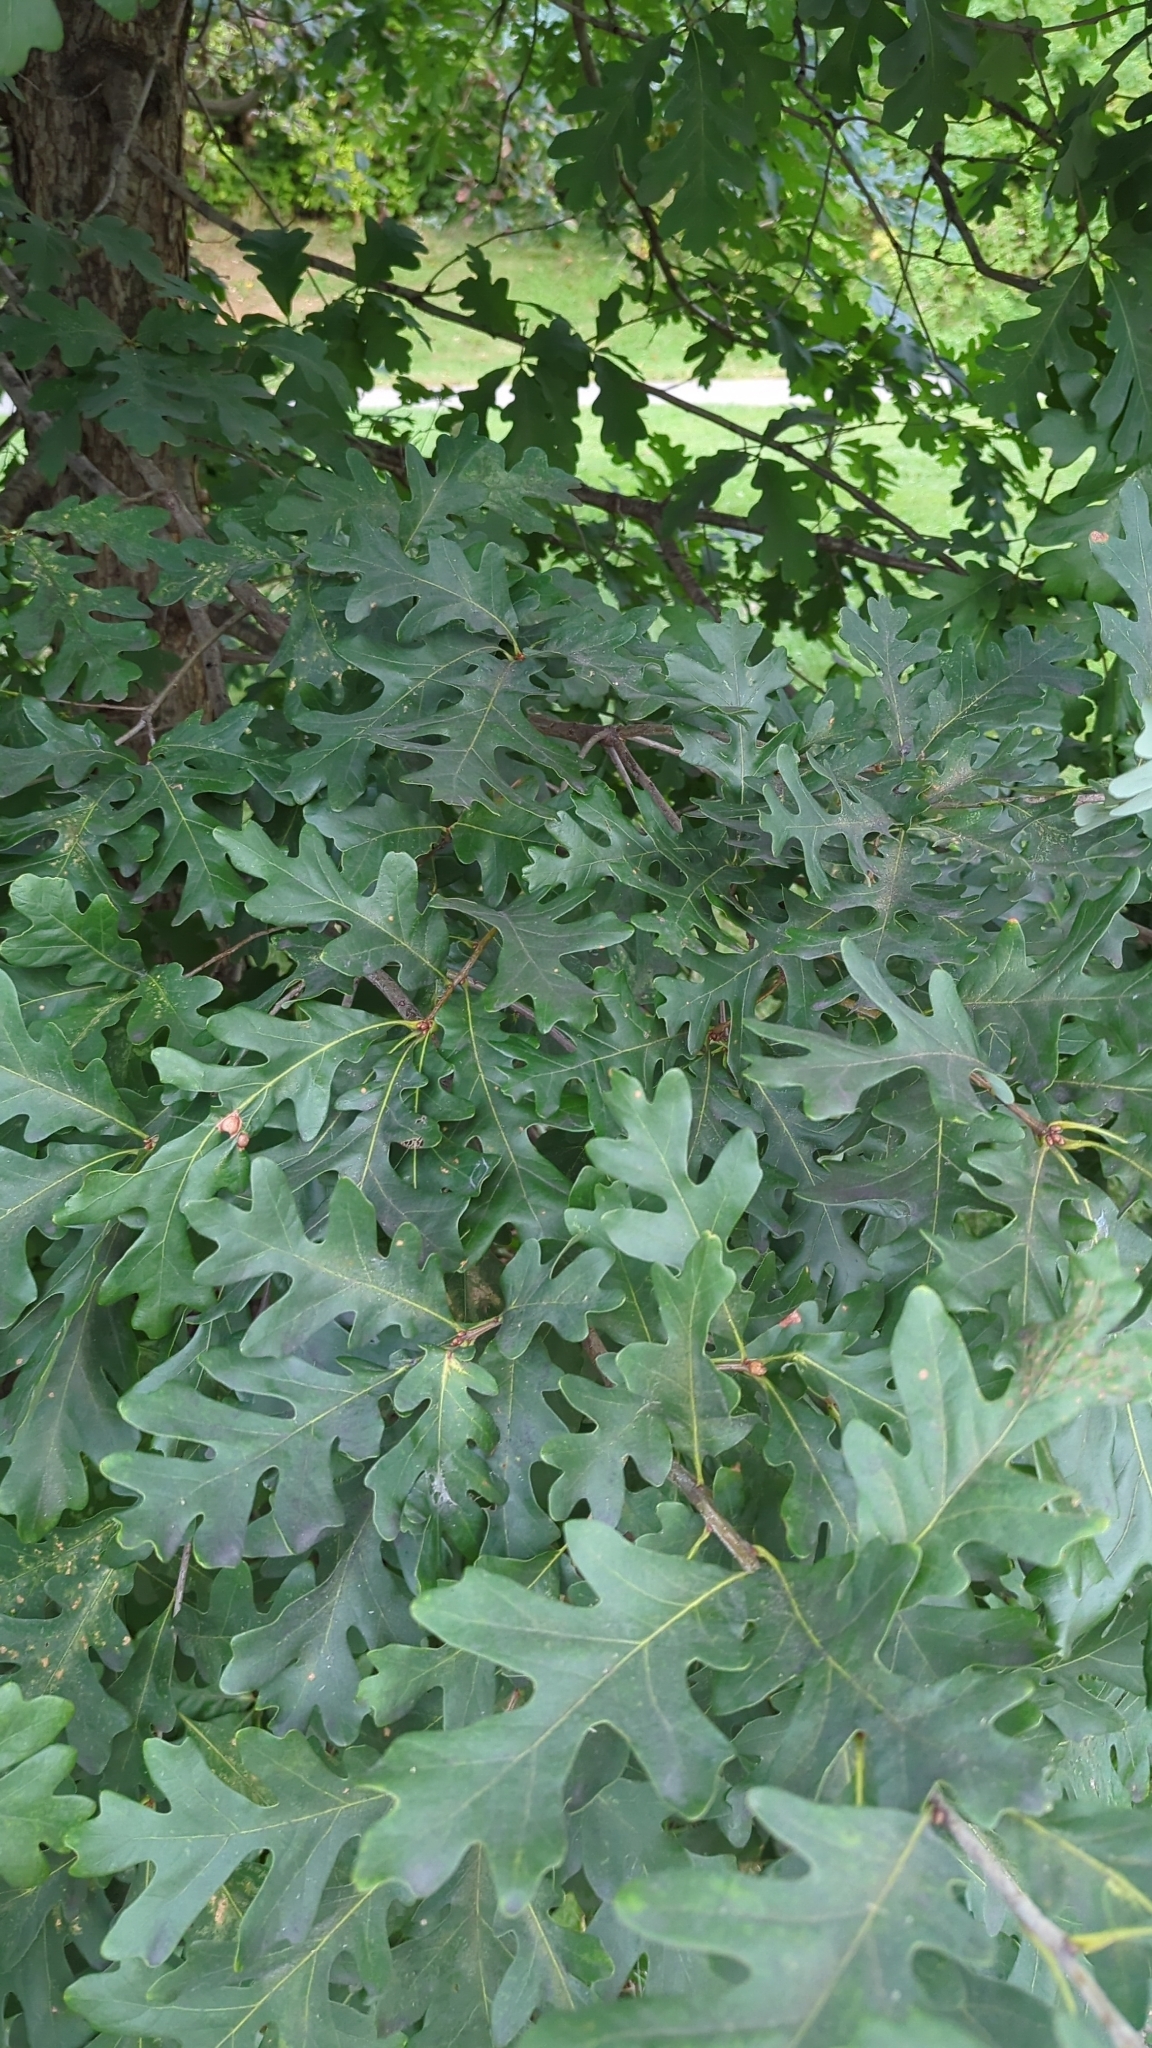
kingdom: Plantae
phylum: Tracheophyta
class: Magnoliopsida
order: Fagales
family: Fagaceae
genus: Quercus
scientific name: Quercus alba
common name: White oak
